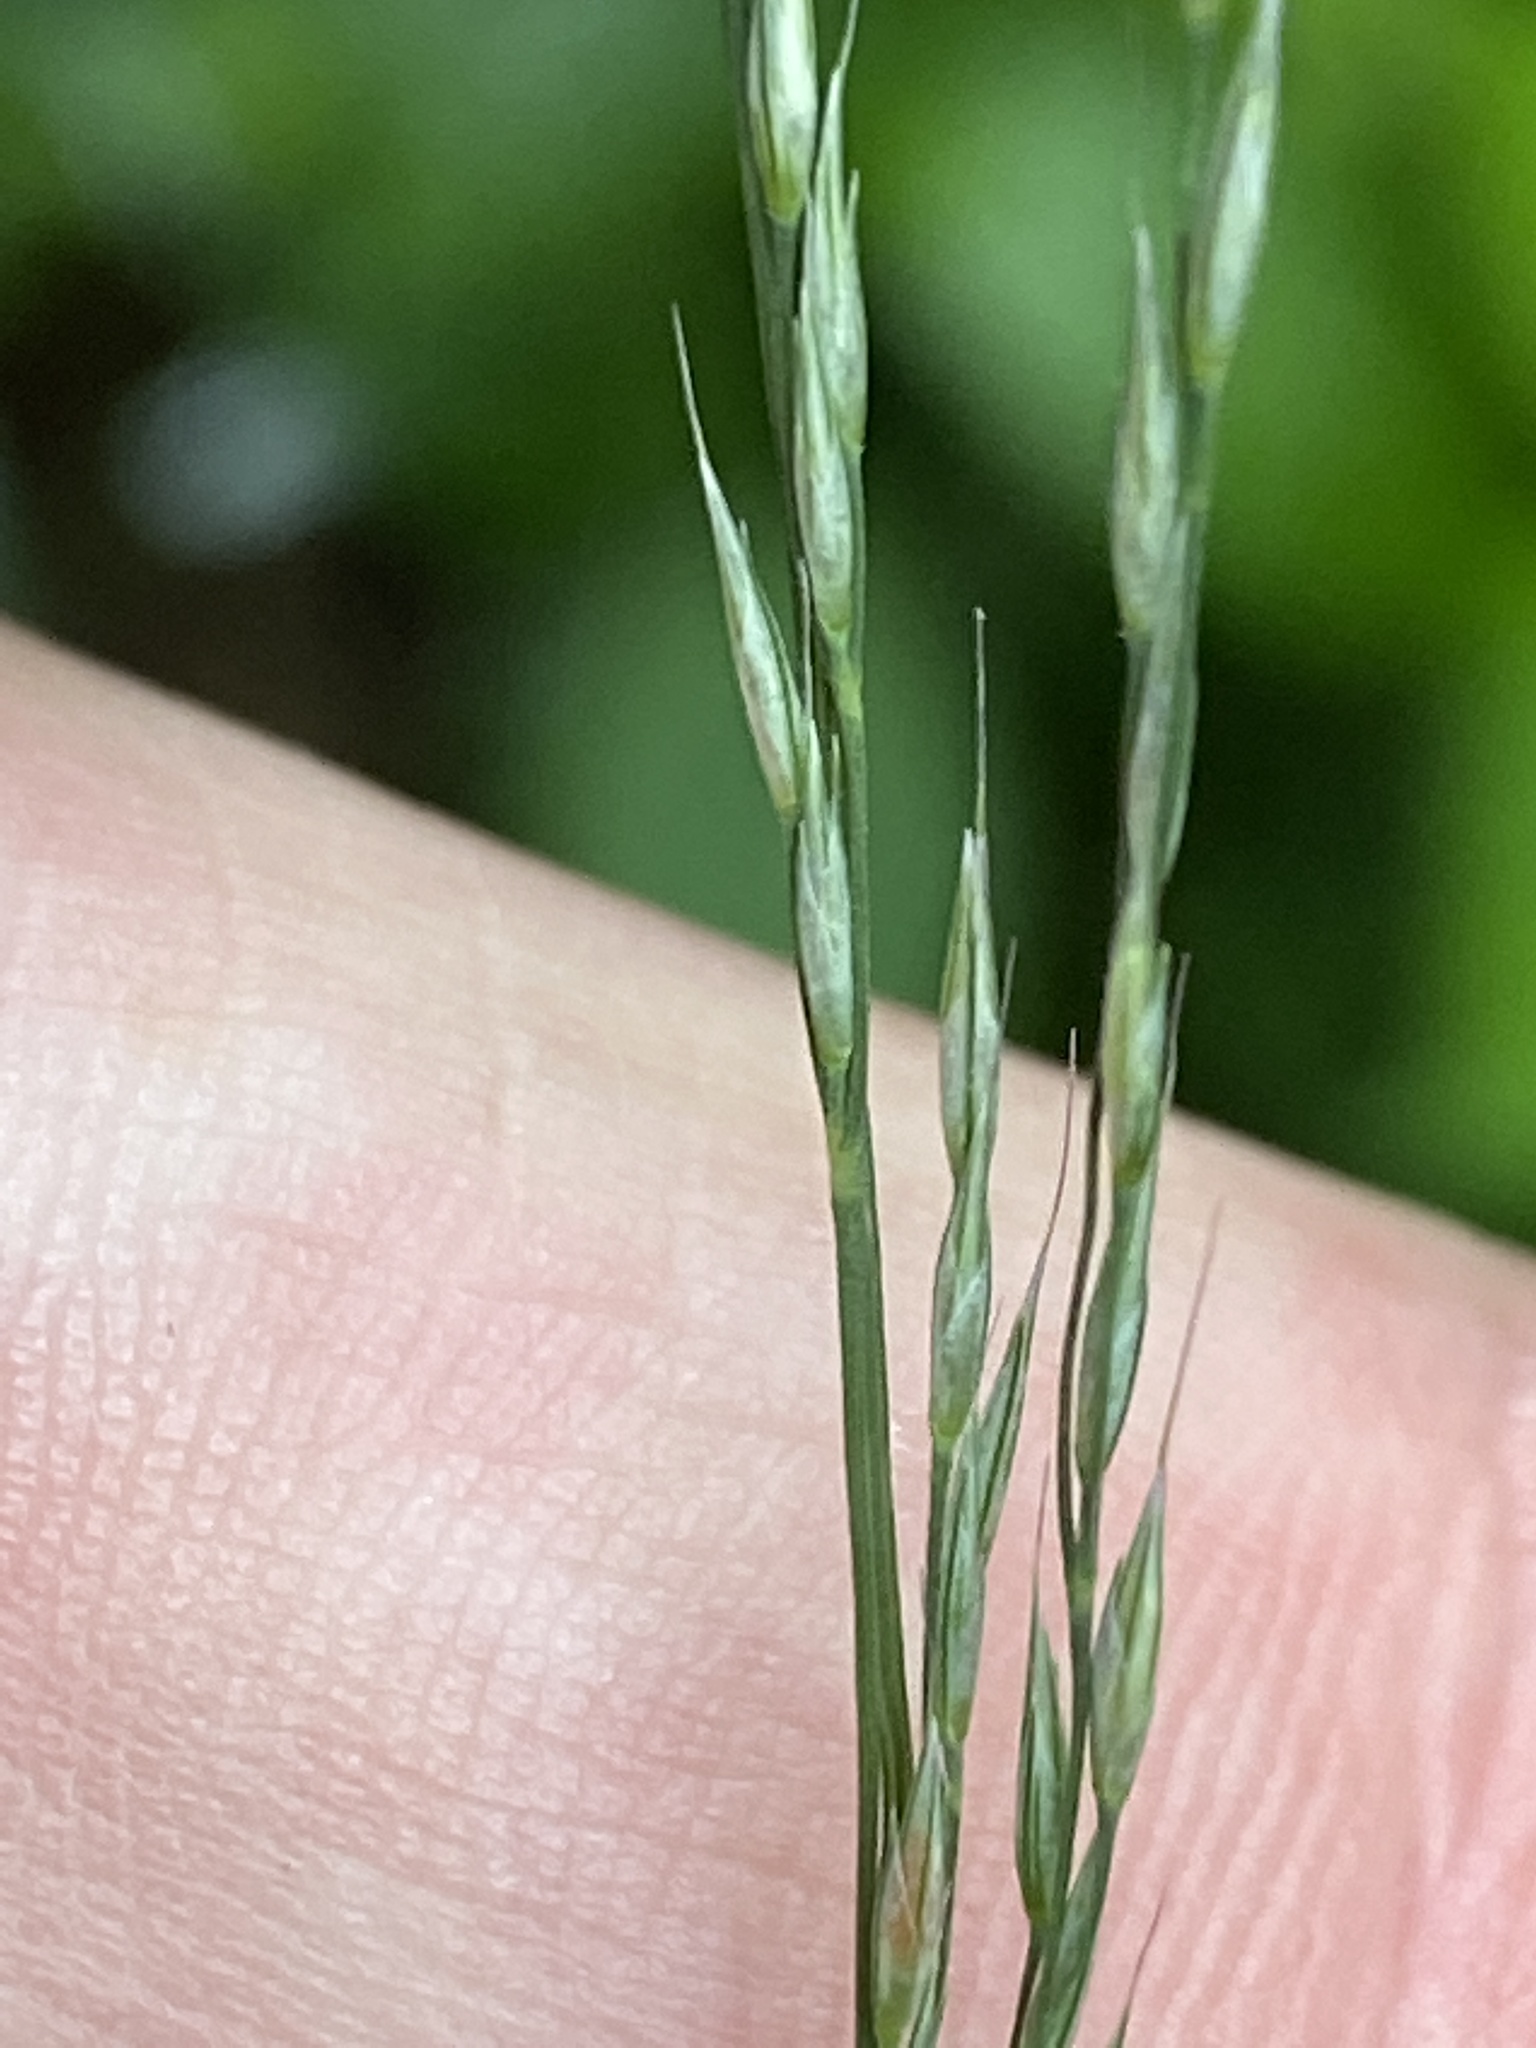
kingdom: Plantae
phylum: Tracheophyta
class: Liliopsida
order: Poales
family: Poaceae
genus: Muhlenbergia
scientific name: Muhlenbergia tenuiflora
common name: Slender muhly
